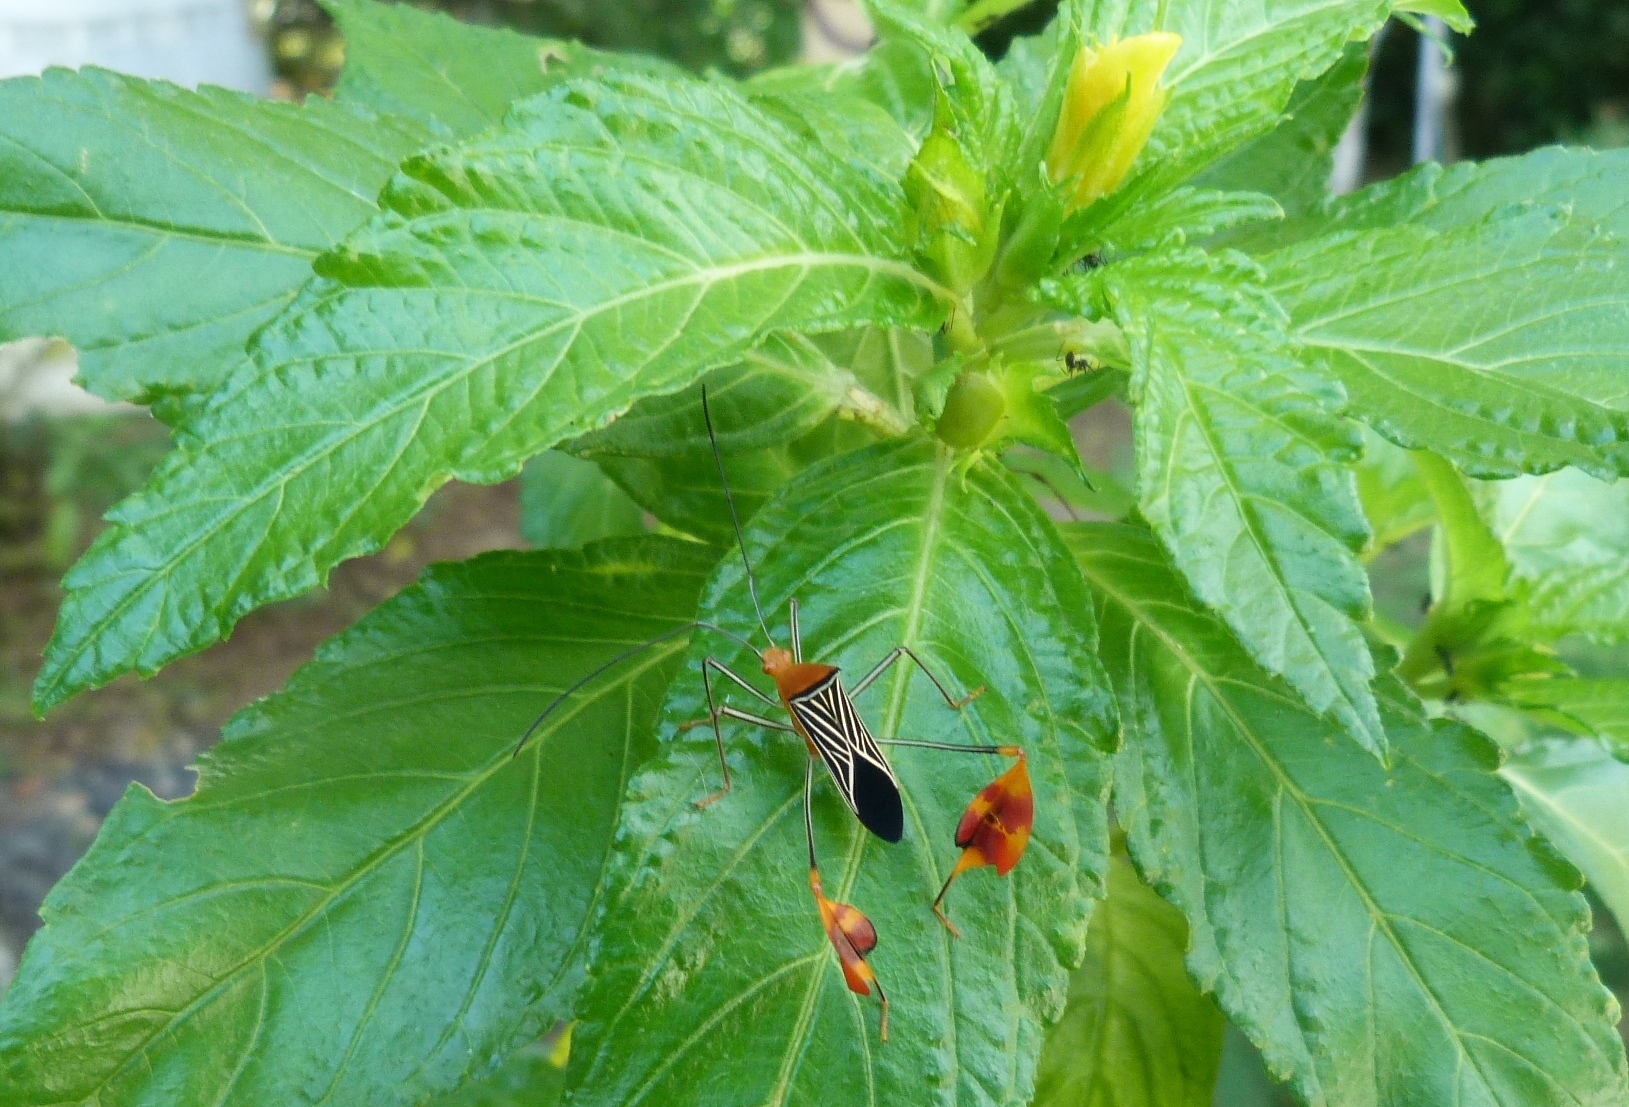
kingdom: Animalia
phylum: Arthropoda
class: Insecta
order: Hemiptera
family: Coreidae
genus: Bitta
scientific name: Bitta
